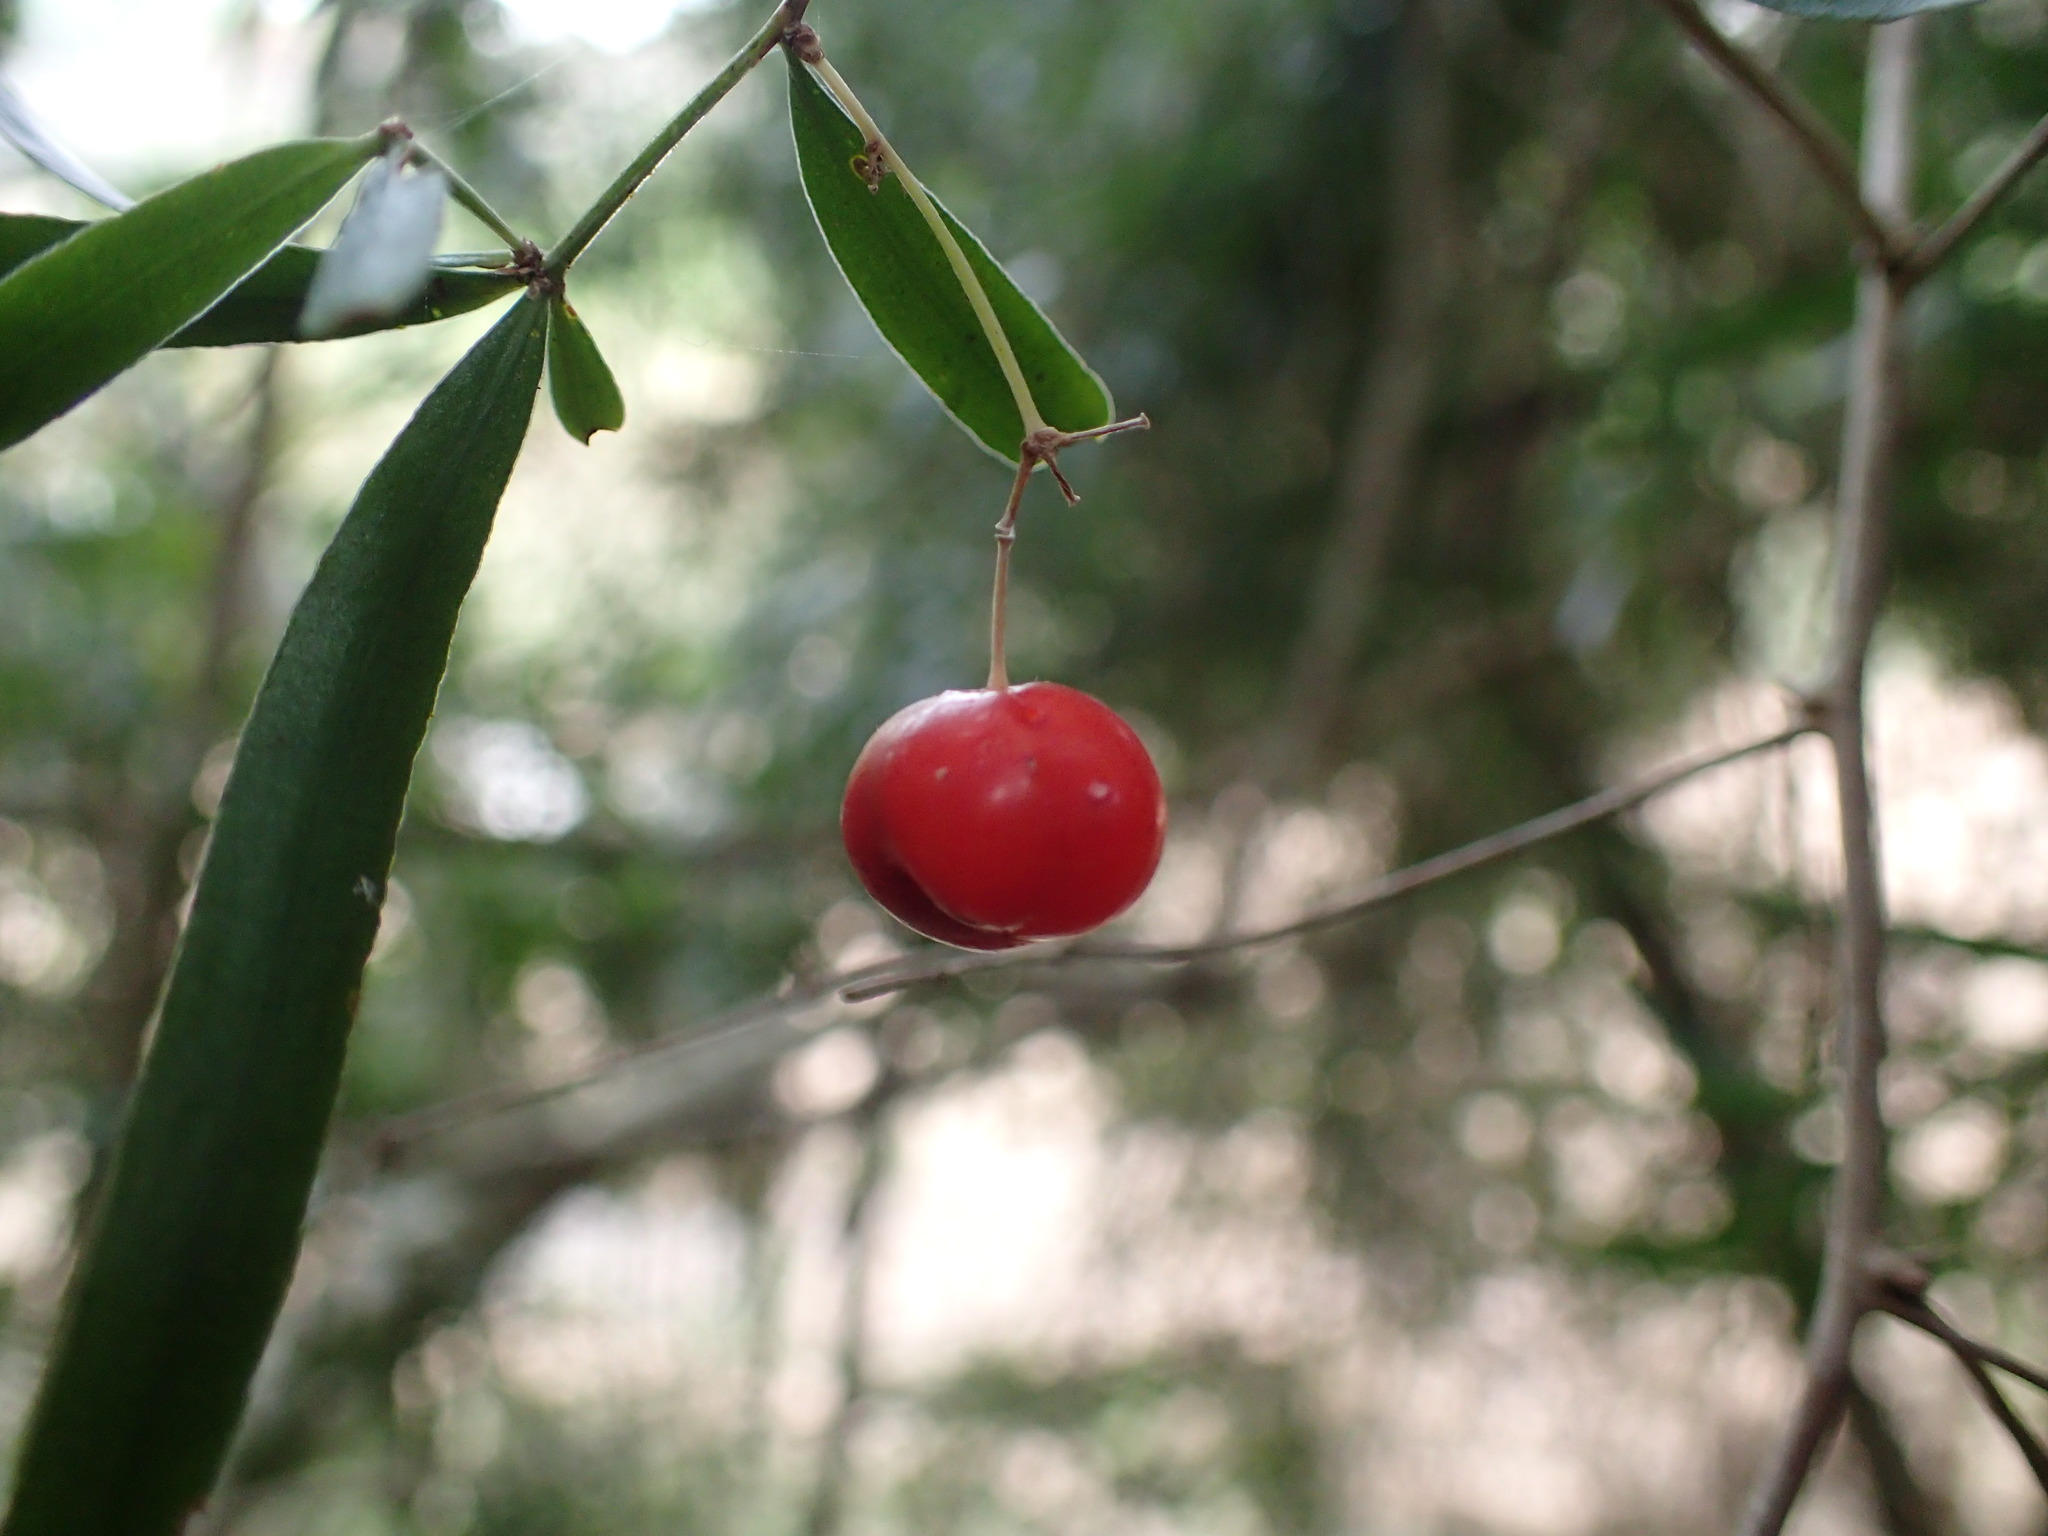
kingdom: Plantae
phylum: Tracheophyta
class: Liliopsida
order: Asparagales
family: Asparagaceae
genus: Asparagus
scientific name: Asparagus falcatus
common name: Asparagus
